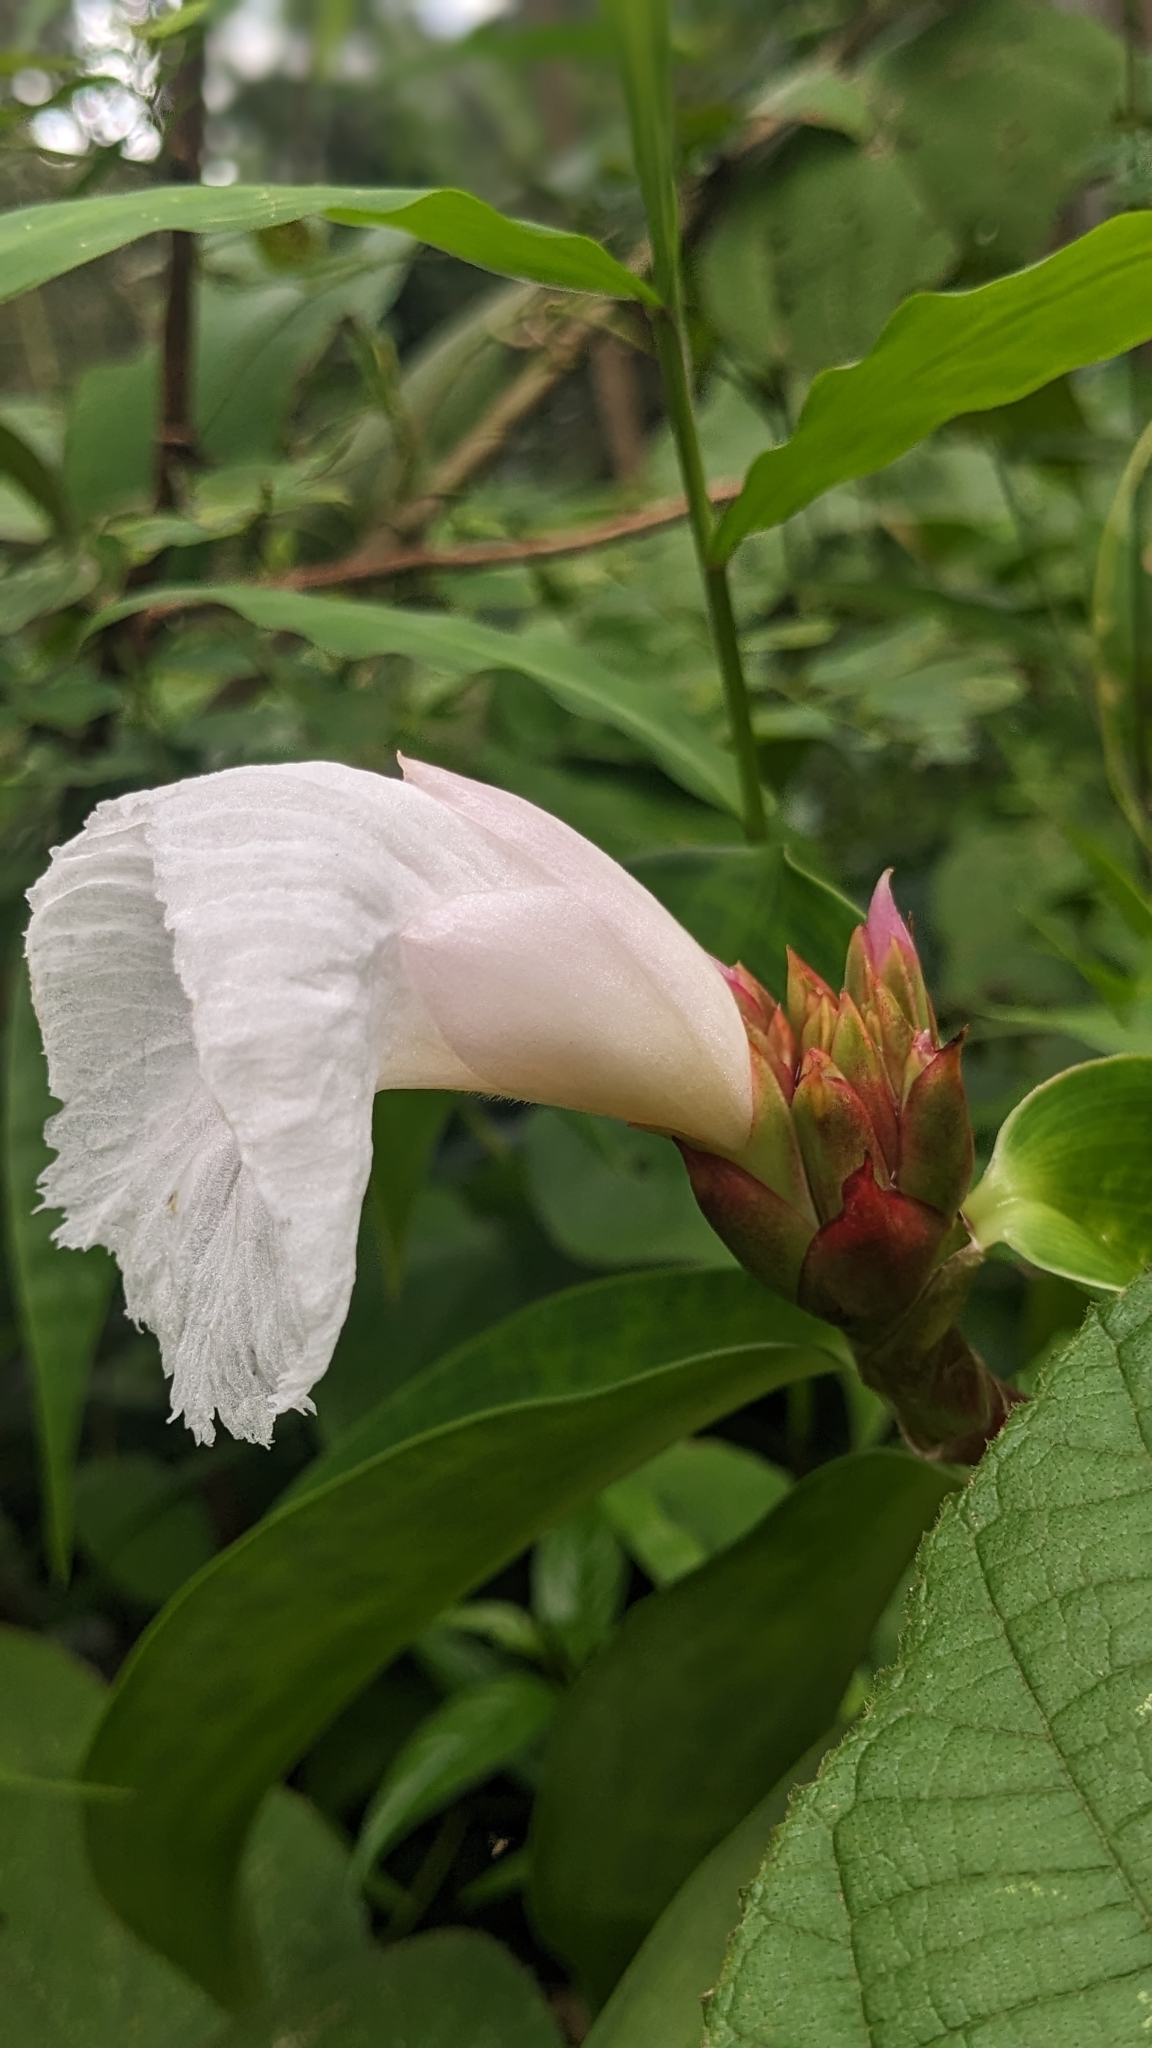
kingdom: Plantae
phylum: Tracheophyta
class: Liliopsida
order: Zingiberales
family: Costaceae
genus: Hellenia
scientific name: Hellenia speciosa
